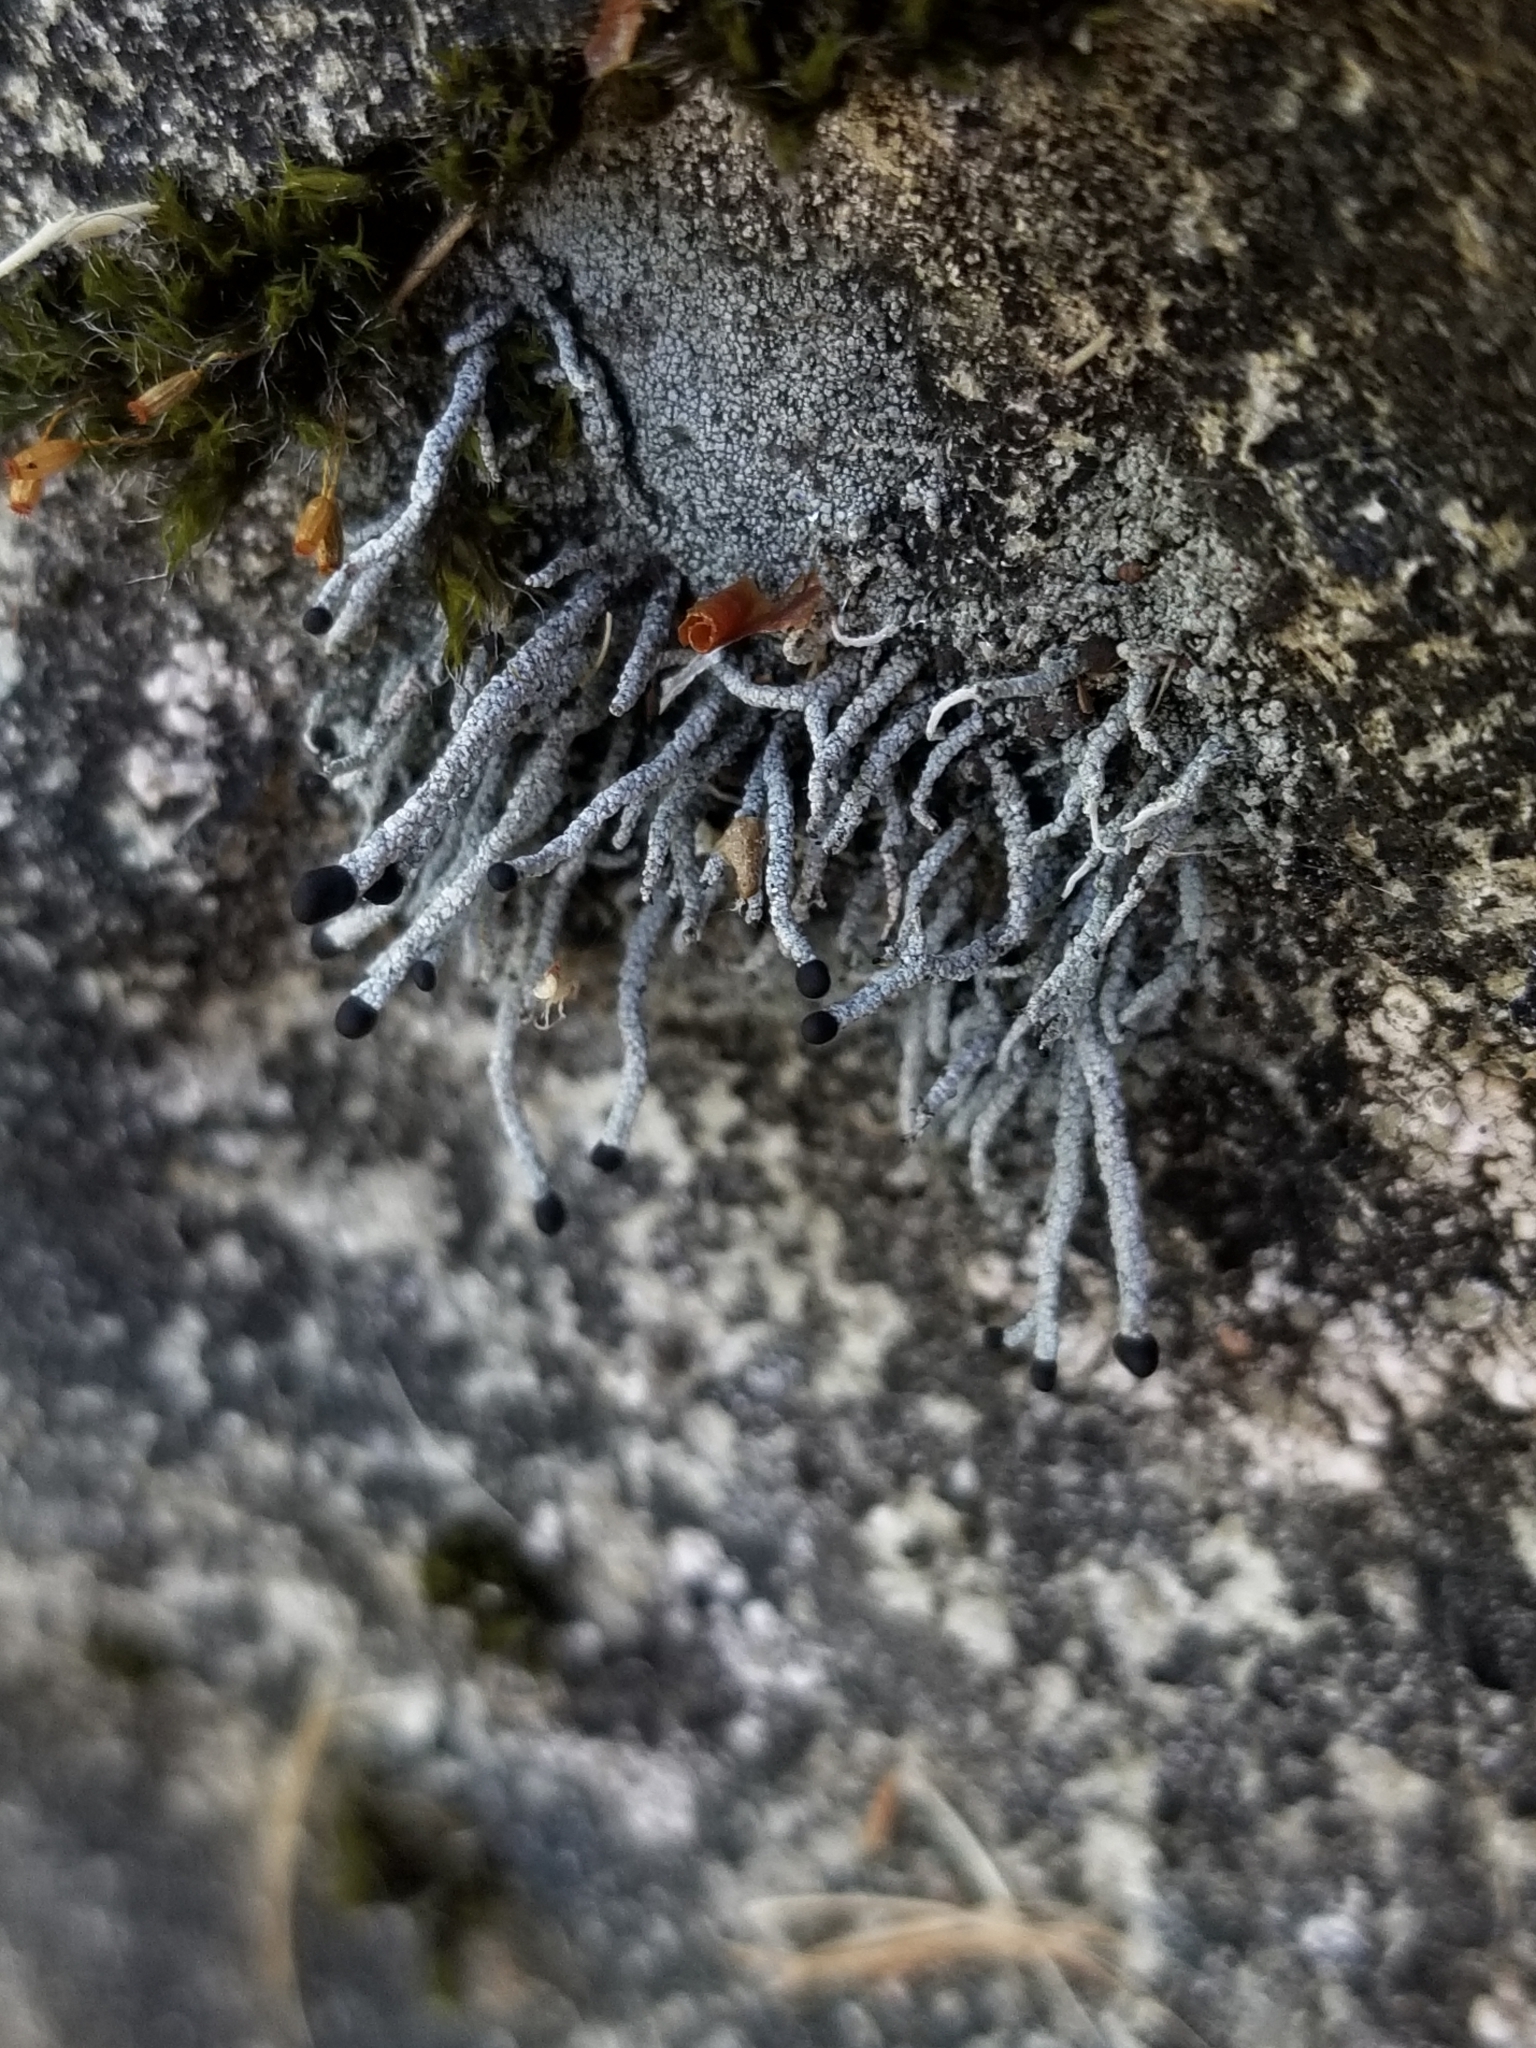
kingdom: Fungi
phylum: Ascomycota
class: Lecanoromycetes
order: Lecanorales
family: Cladoniaceae
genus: Pilophorus
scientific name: Pilophorus acicularis
